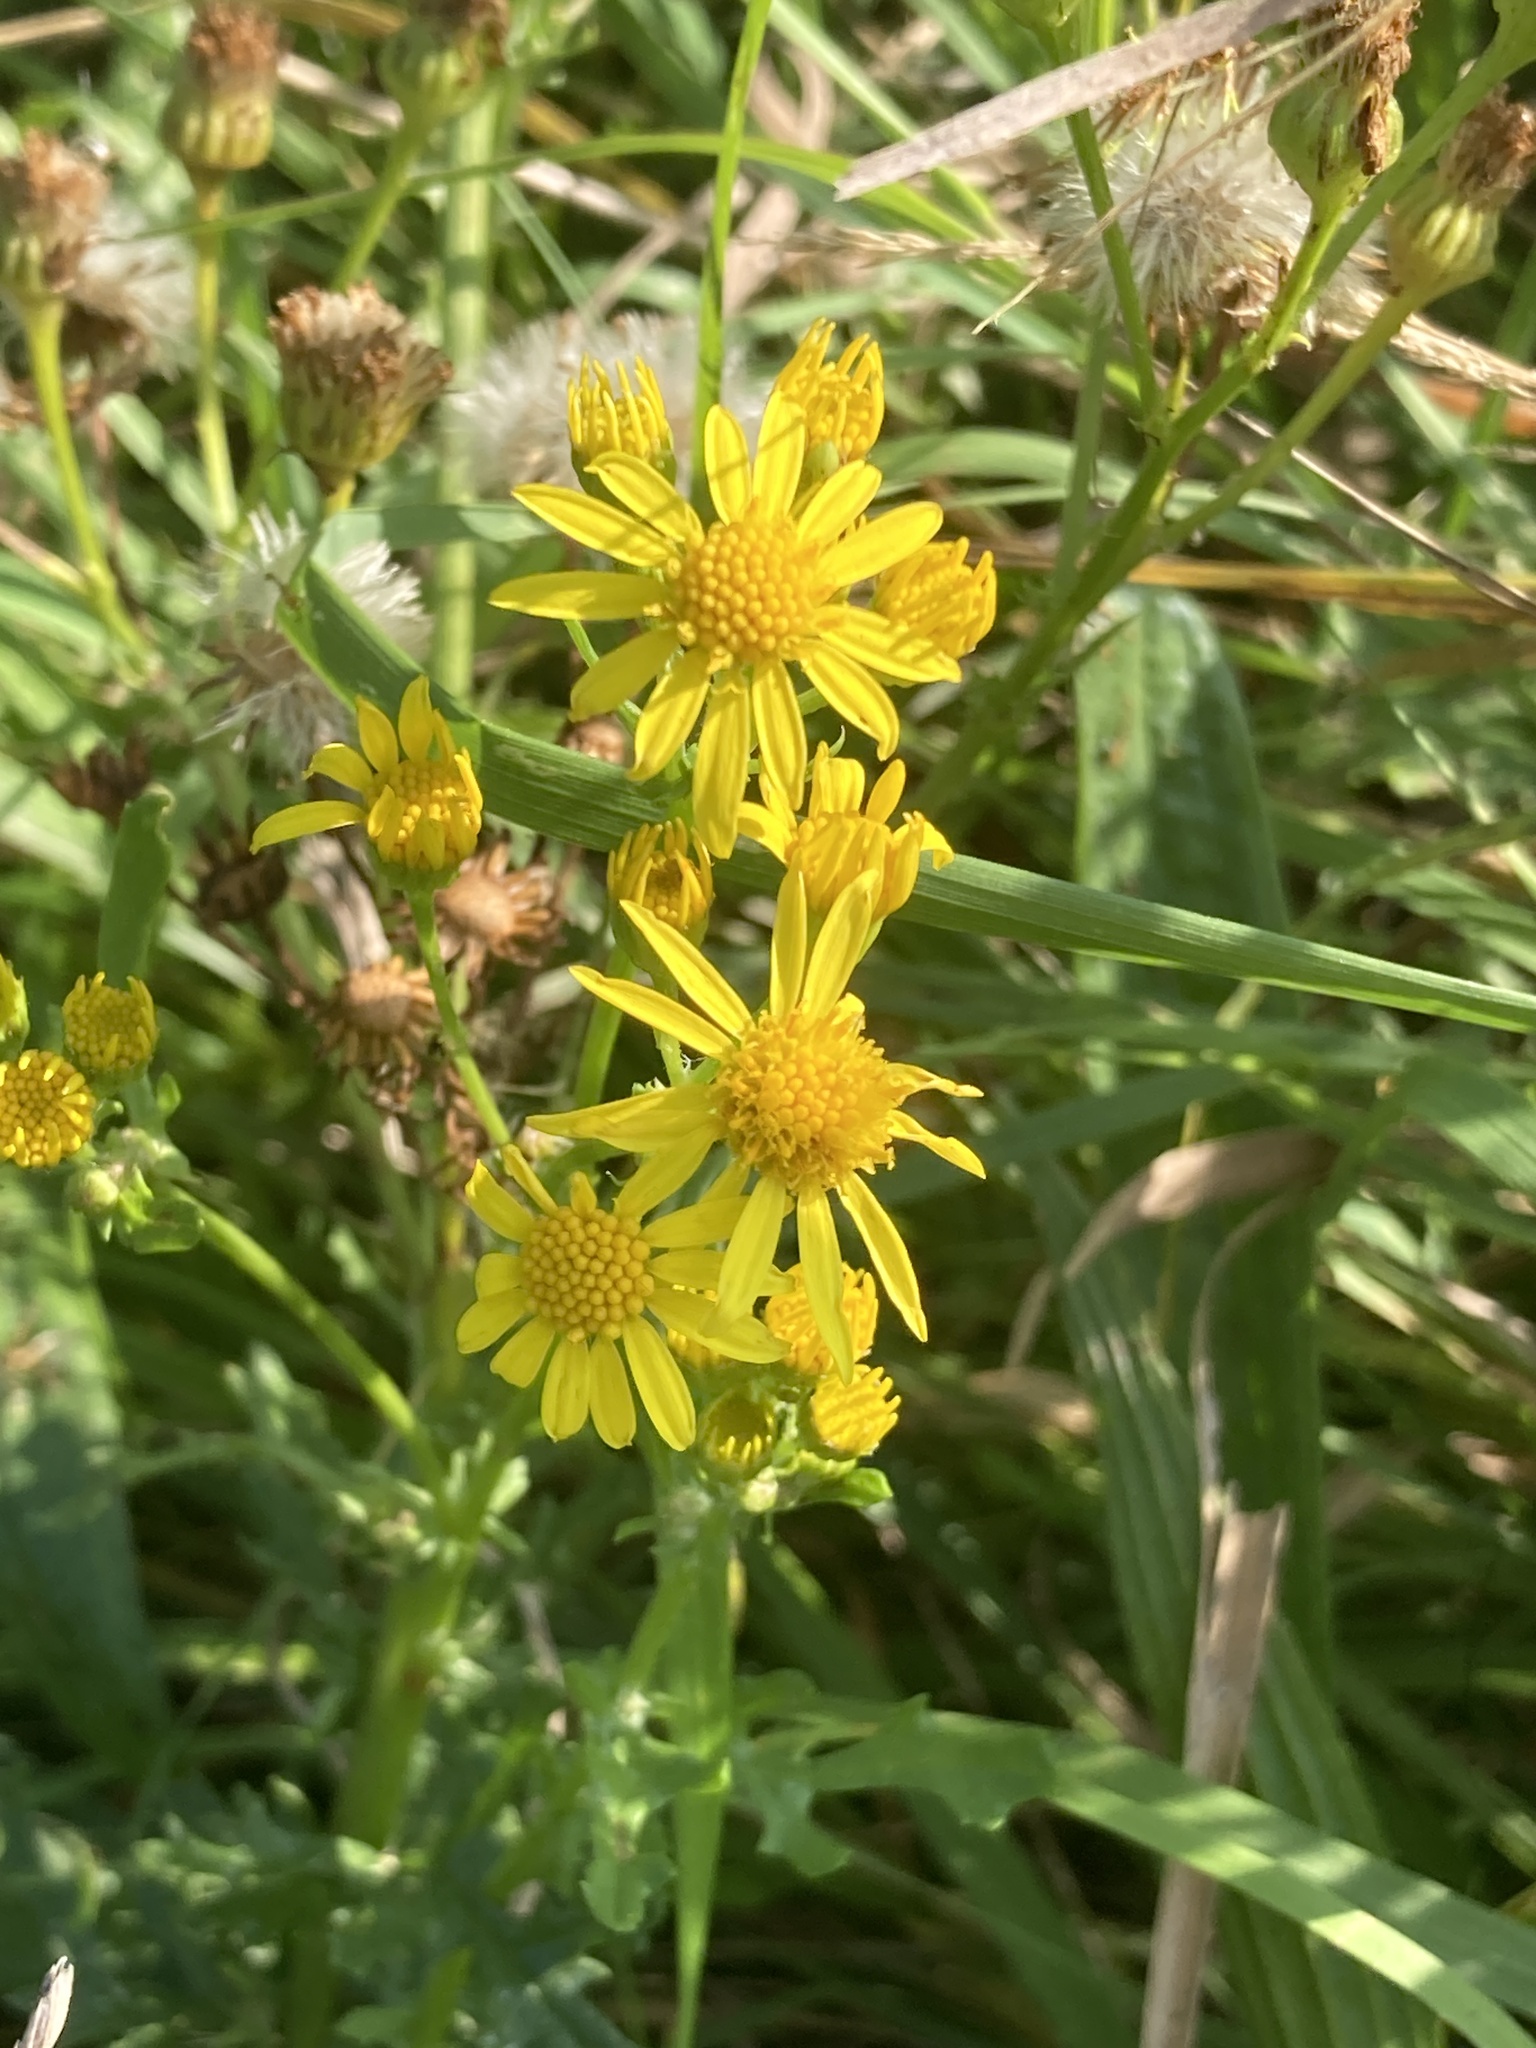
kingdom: Plantae
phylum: Tracheophyta
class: Magnoliopsida
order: Asterales
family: Asteraceae
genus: Jacobaea
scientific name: Jacobaea vulgaris
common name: Stinking willie
